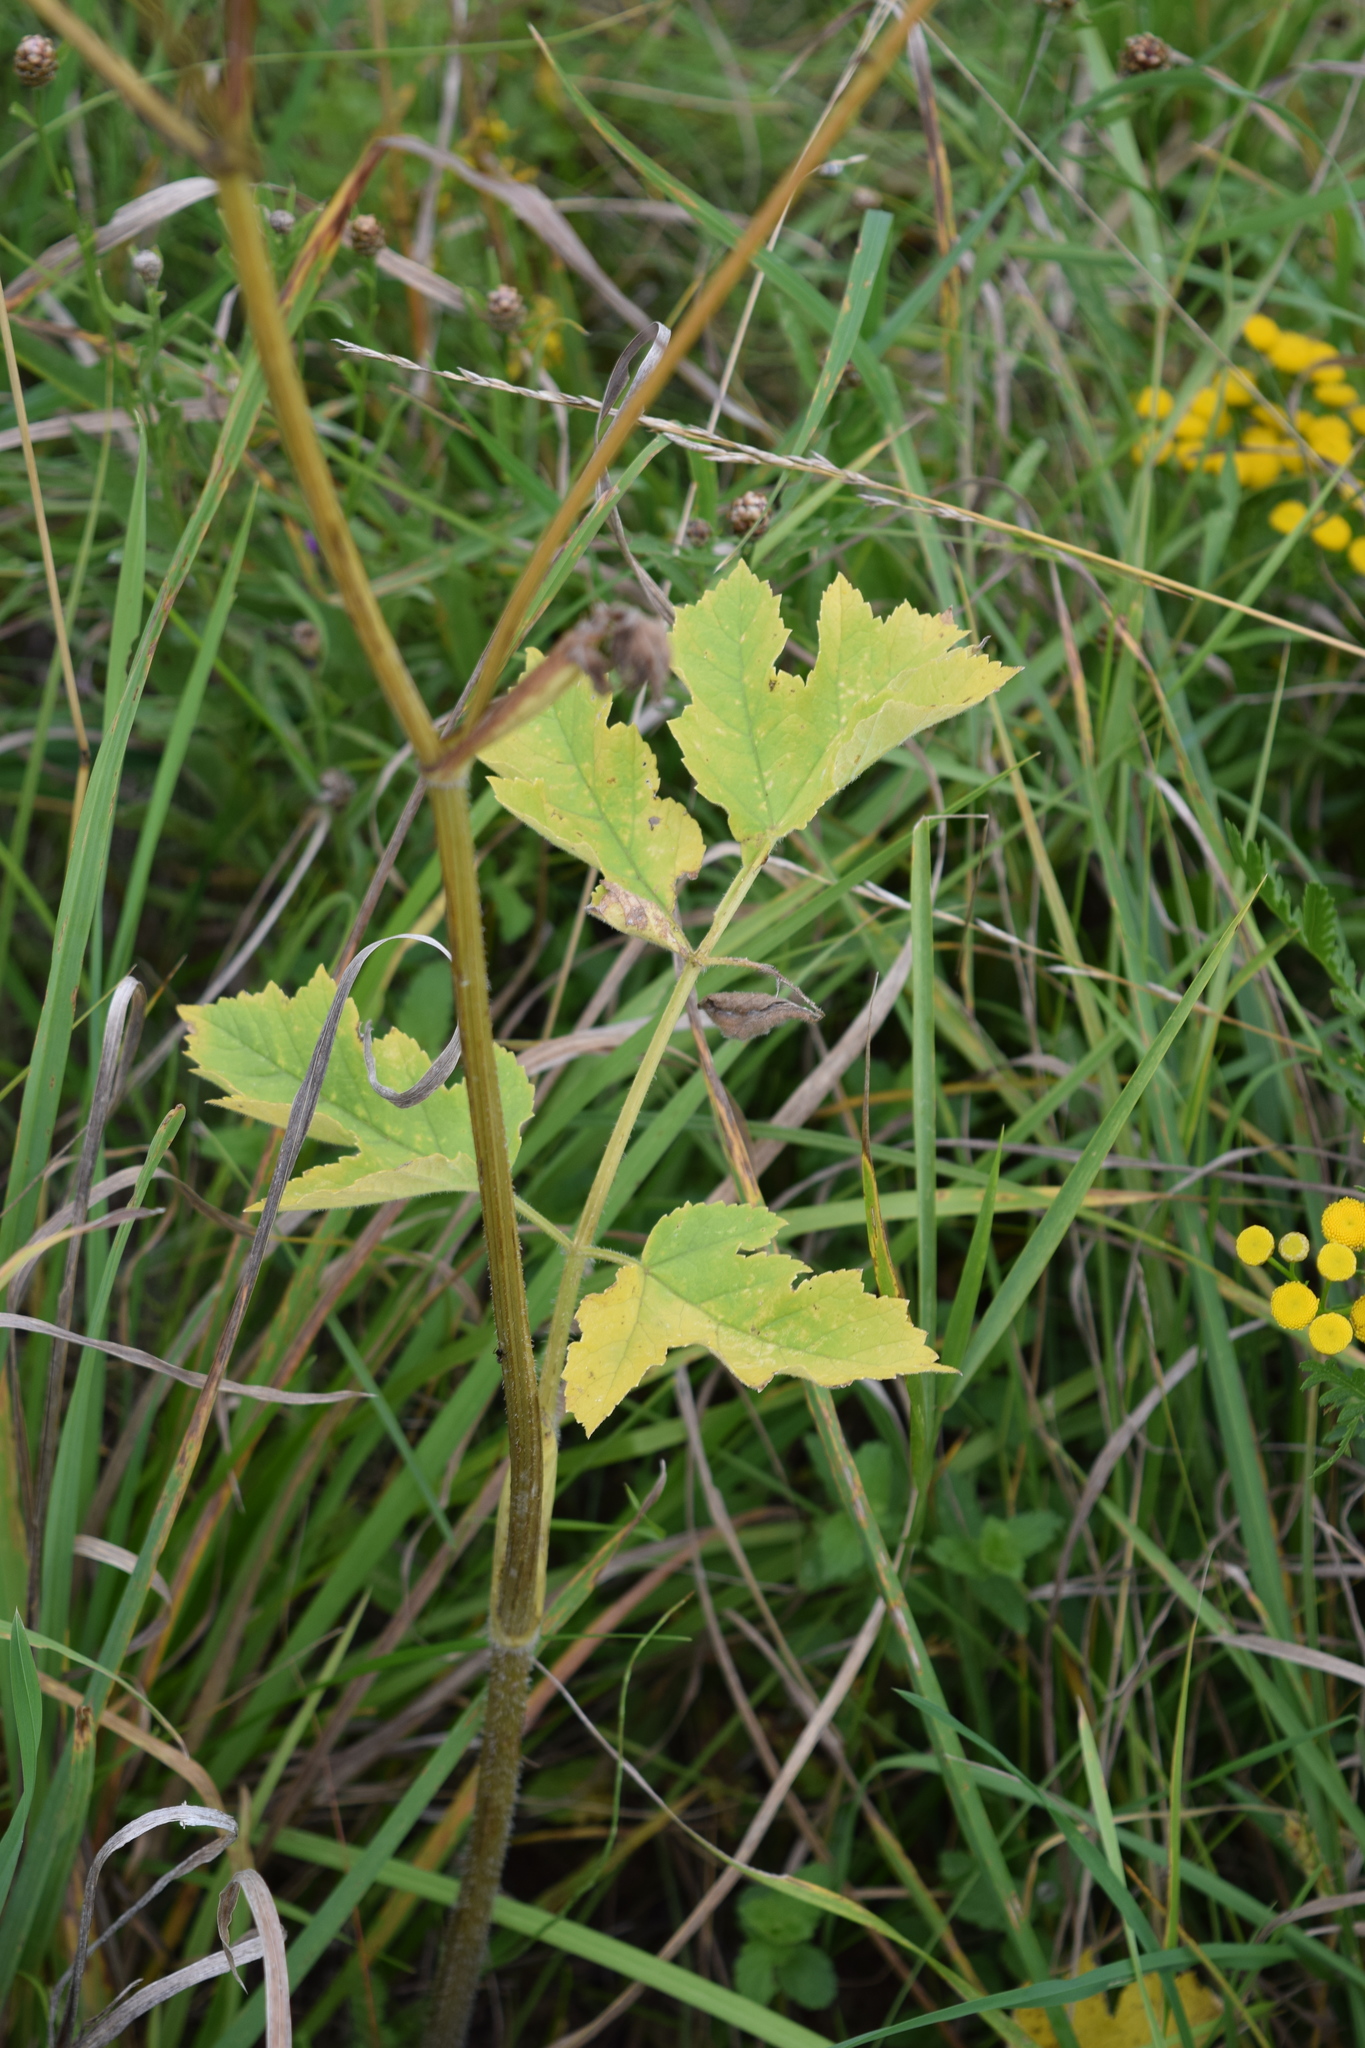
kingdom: Plantae
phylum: Tracheophyta
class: Magnoliopsida
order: Apiales
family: Apiaceae
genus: Heracleum
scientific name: Heracleum sphondylium
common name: Hogweed
